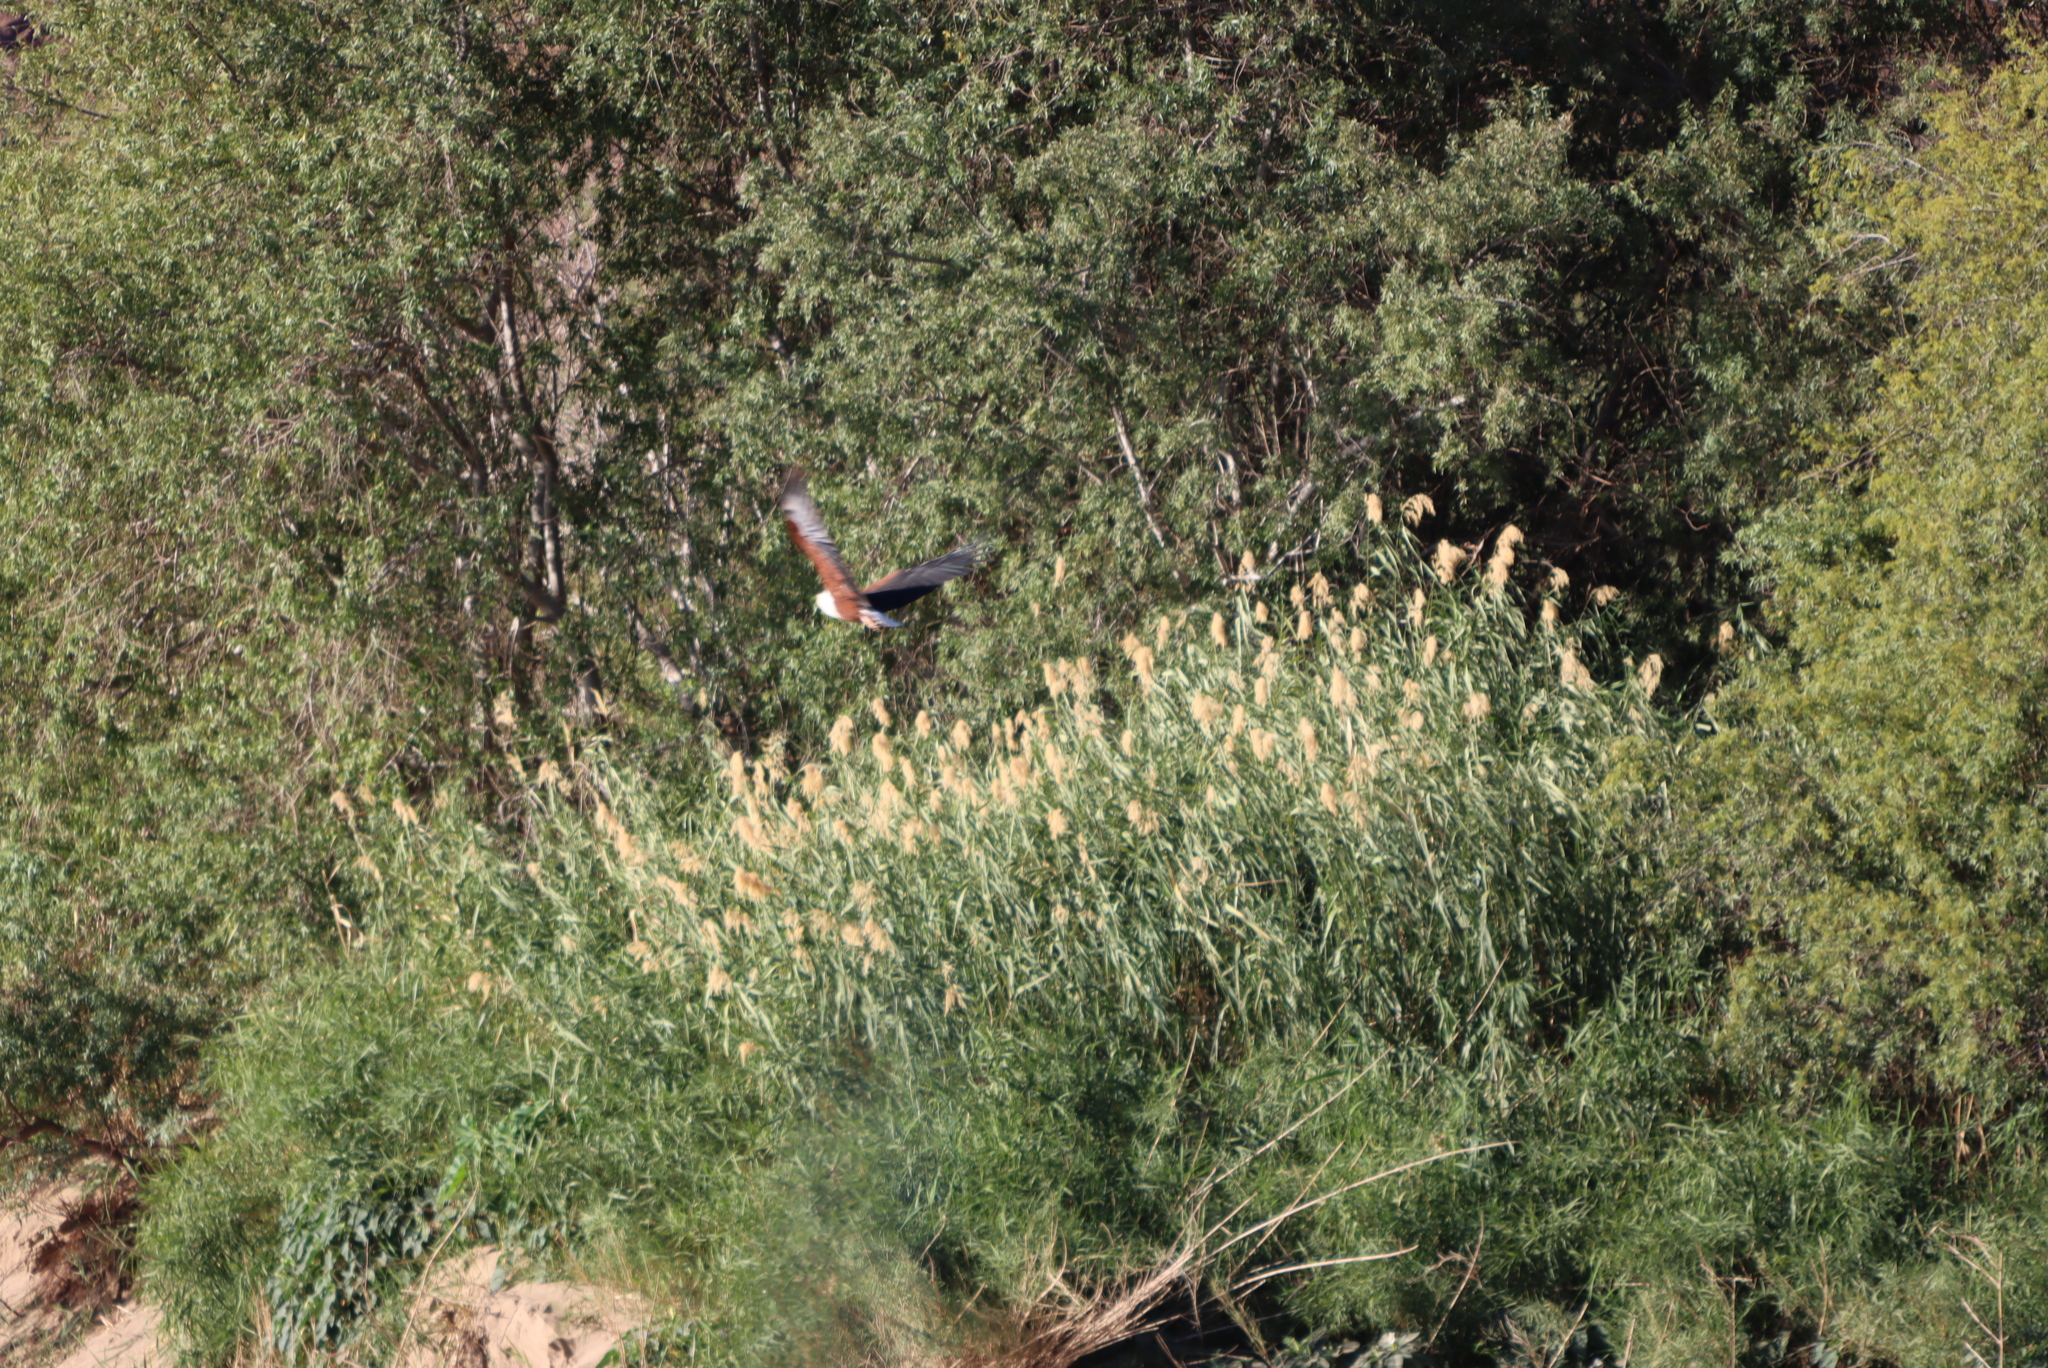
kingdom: Plantae
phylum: Tracheophyta
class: Liliopsida
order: Poales
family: Poaceae
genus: Phragmites
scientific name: Phragmites australis
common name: Common reed
